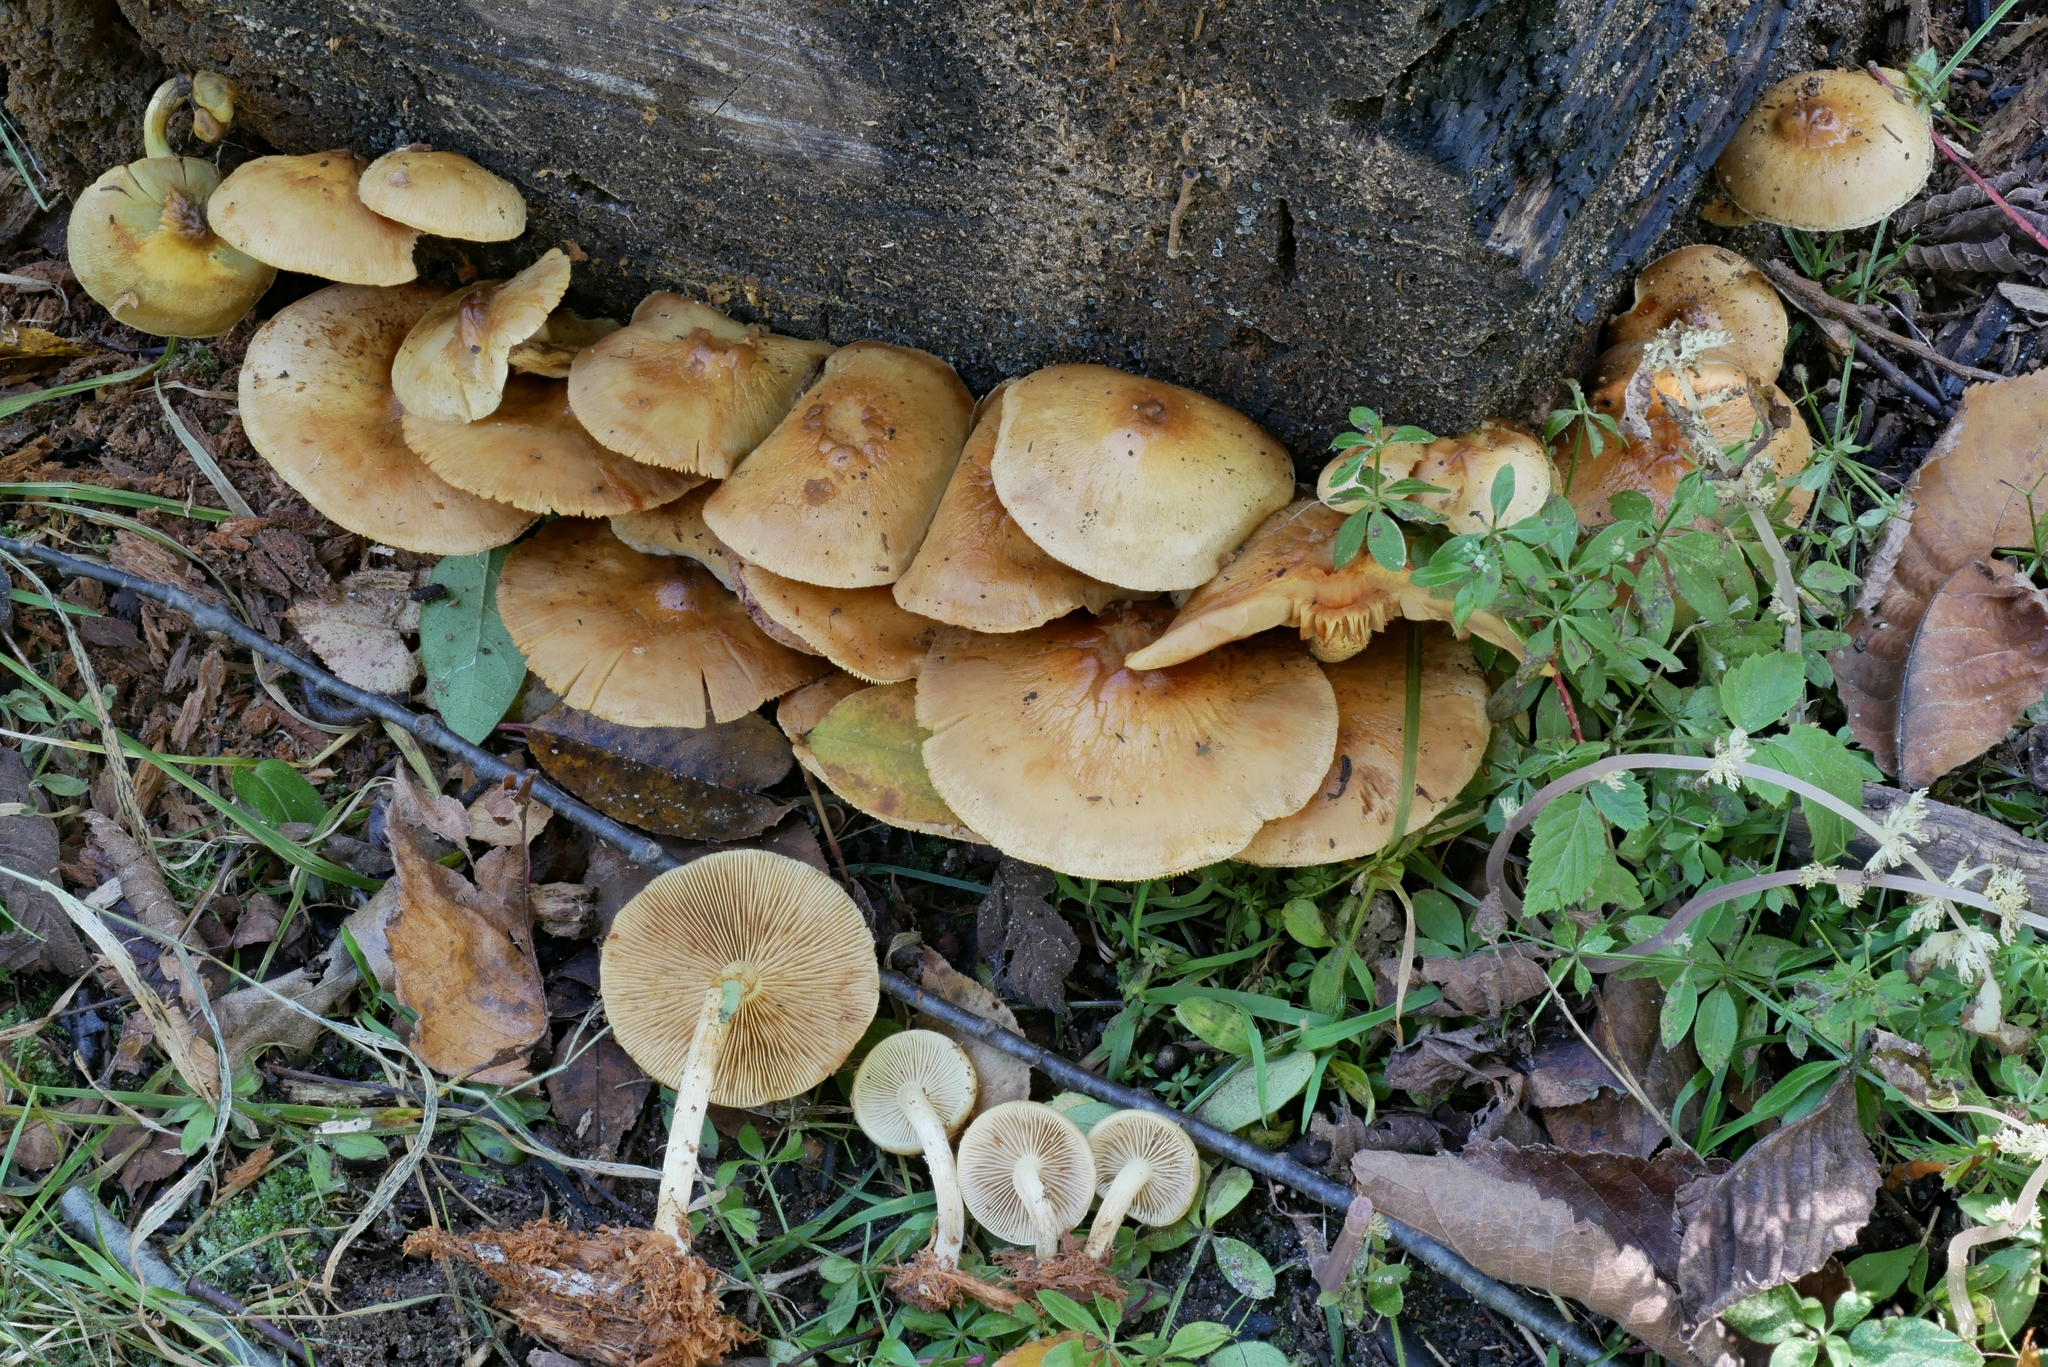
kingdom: Fungi
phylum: Basidiomycota
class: Agaricomycetes
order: Agaricales
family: Strophariaceae
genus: Pholiota
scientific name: Pholiota spumosa
